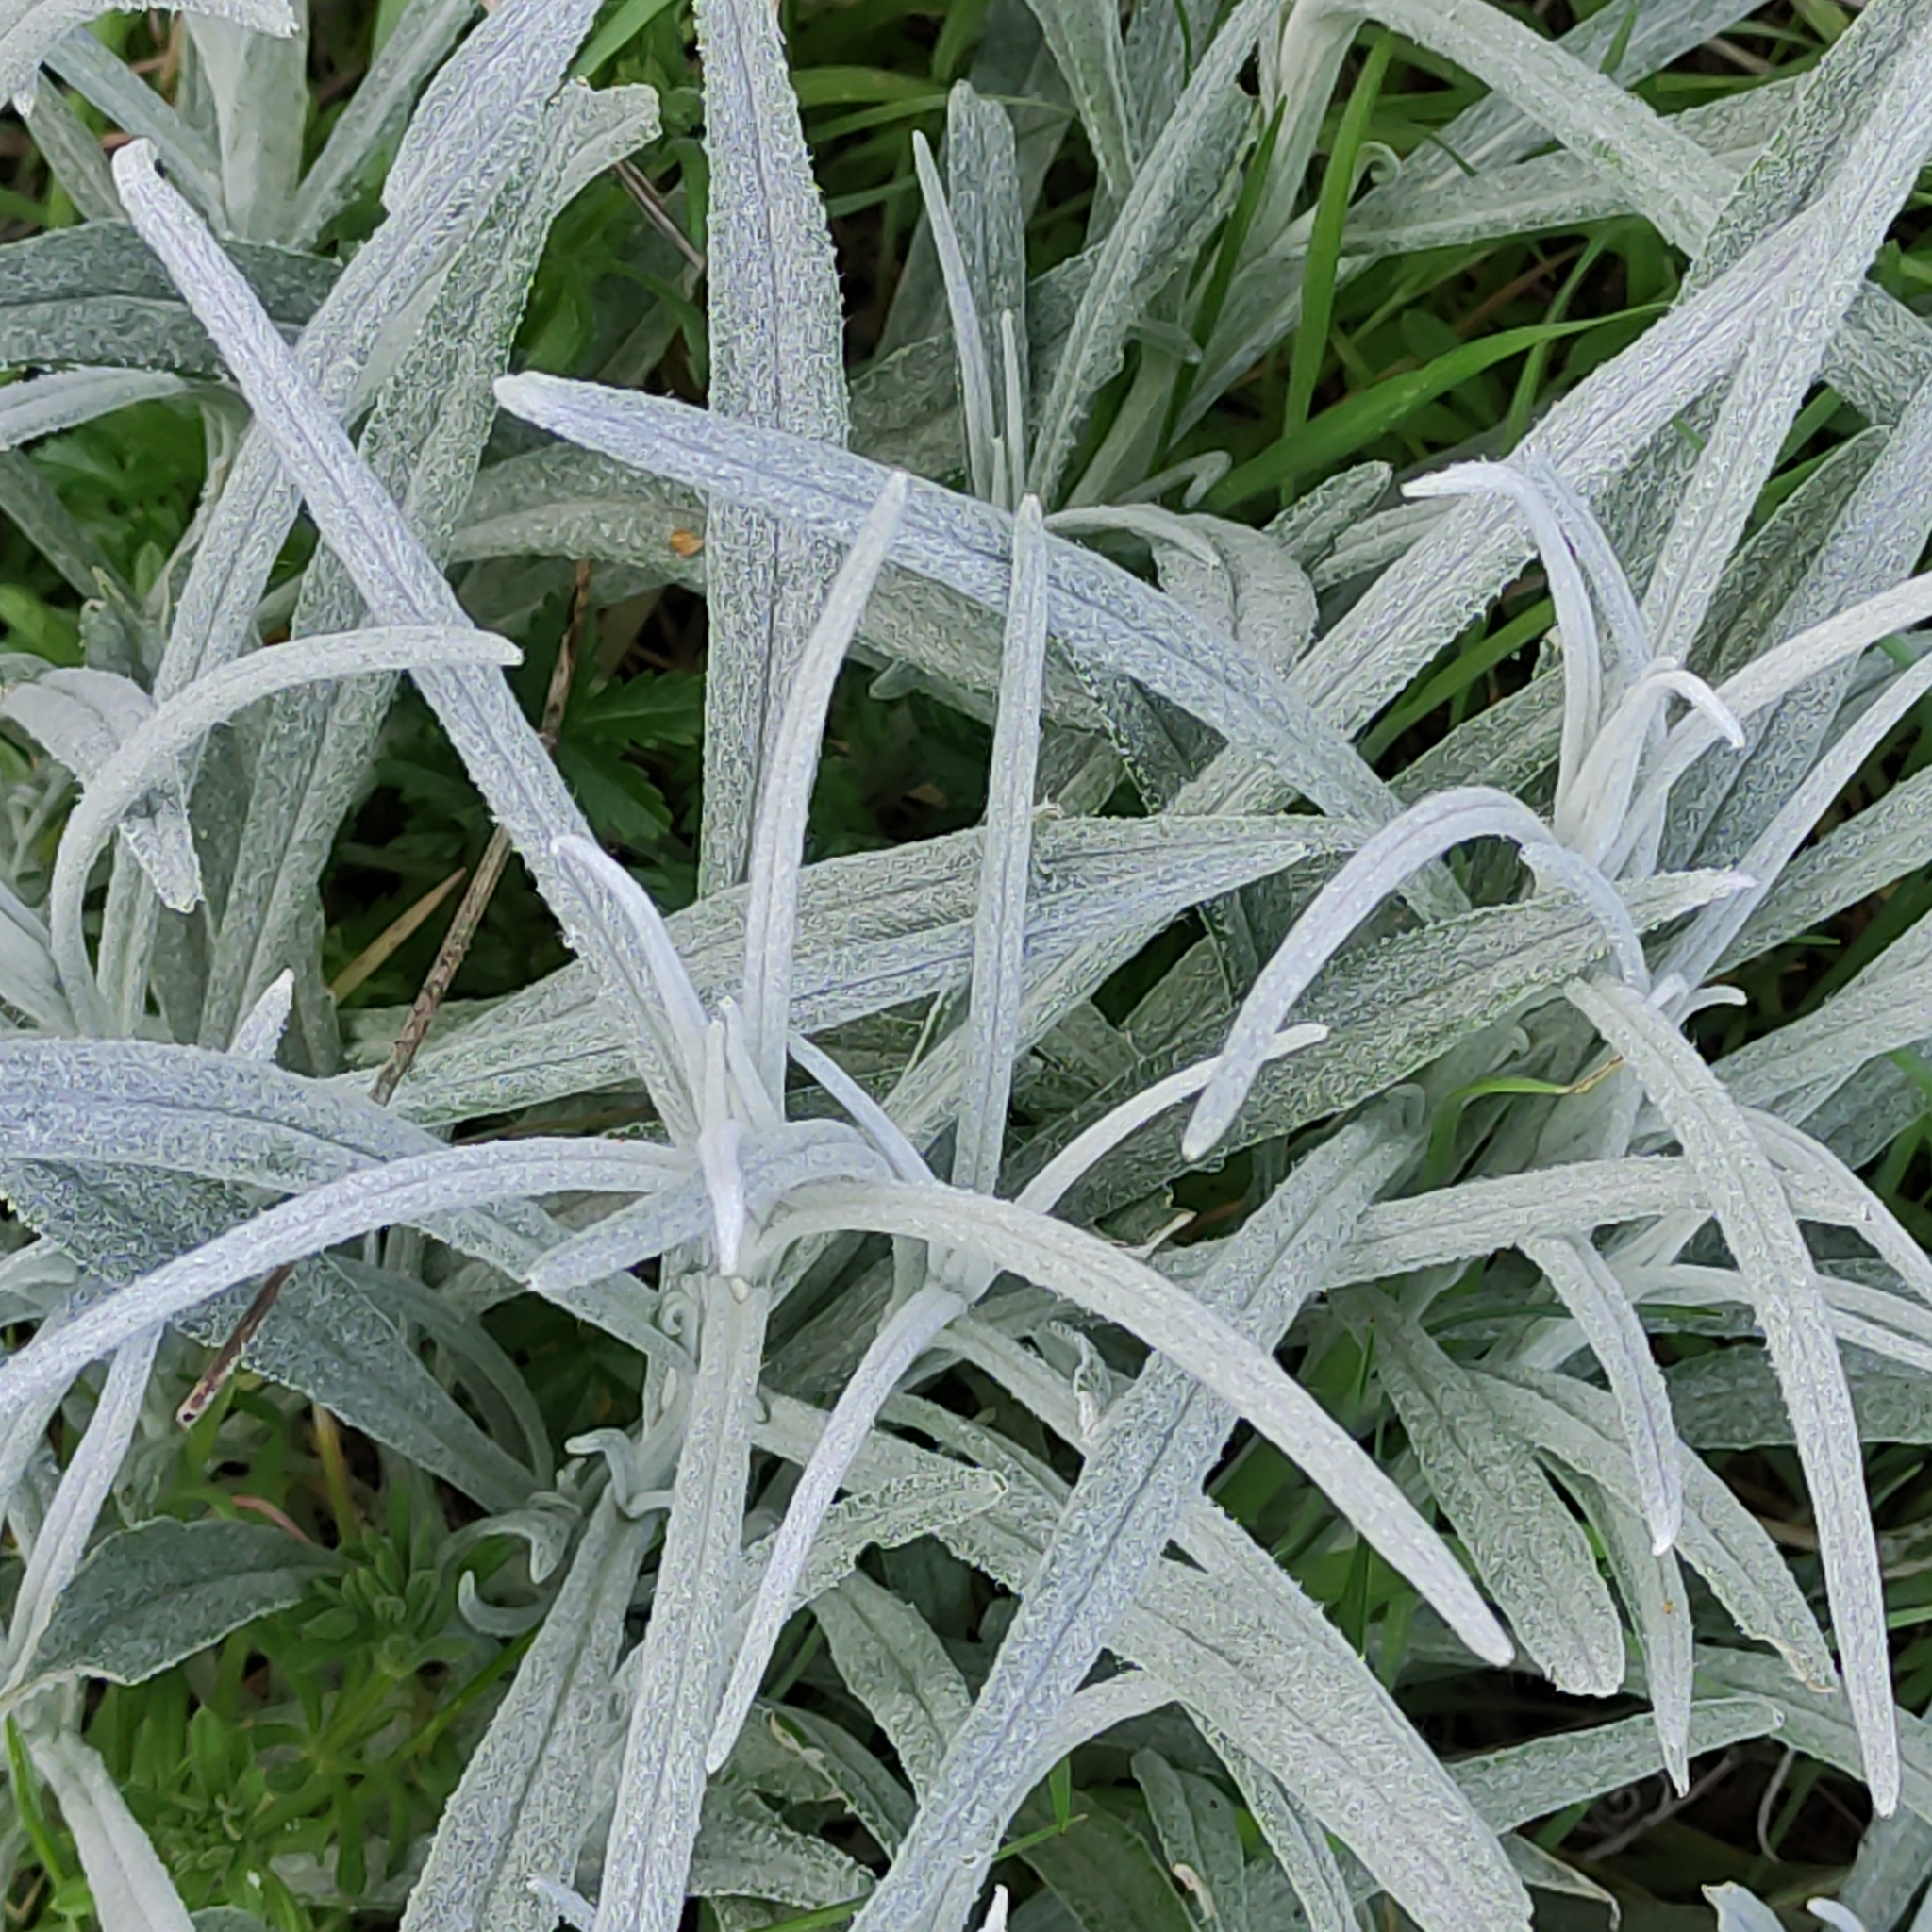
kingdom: Plantae
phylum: Tracheophyta
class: Magnoliopsida
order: Asterales
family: Asteraceae
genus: Senecio
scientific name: Senecio quadridentatus
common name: Cotton fireweed
